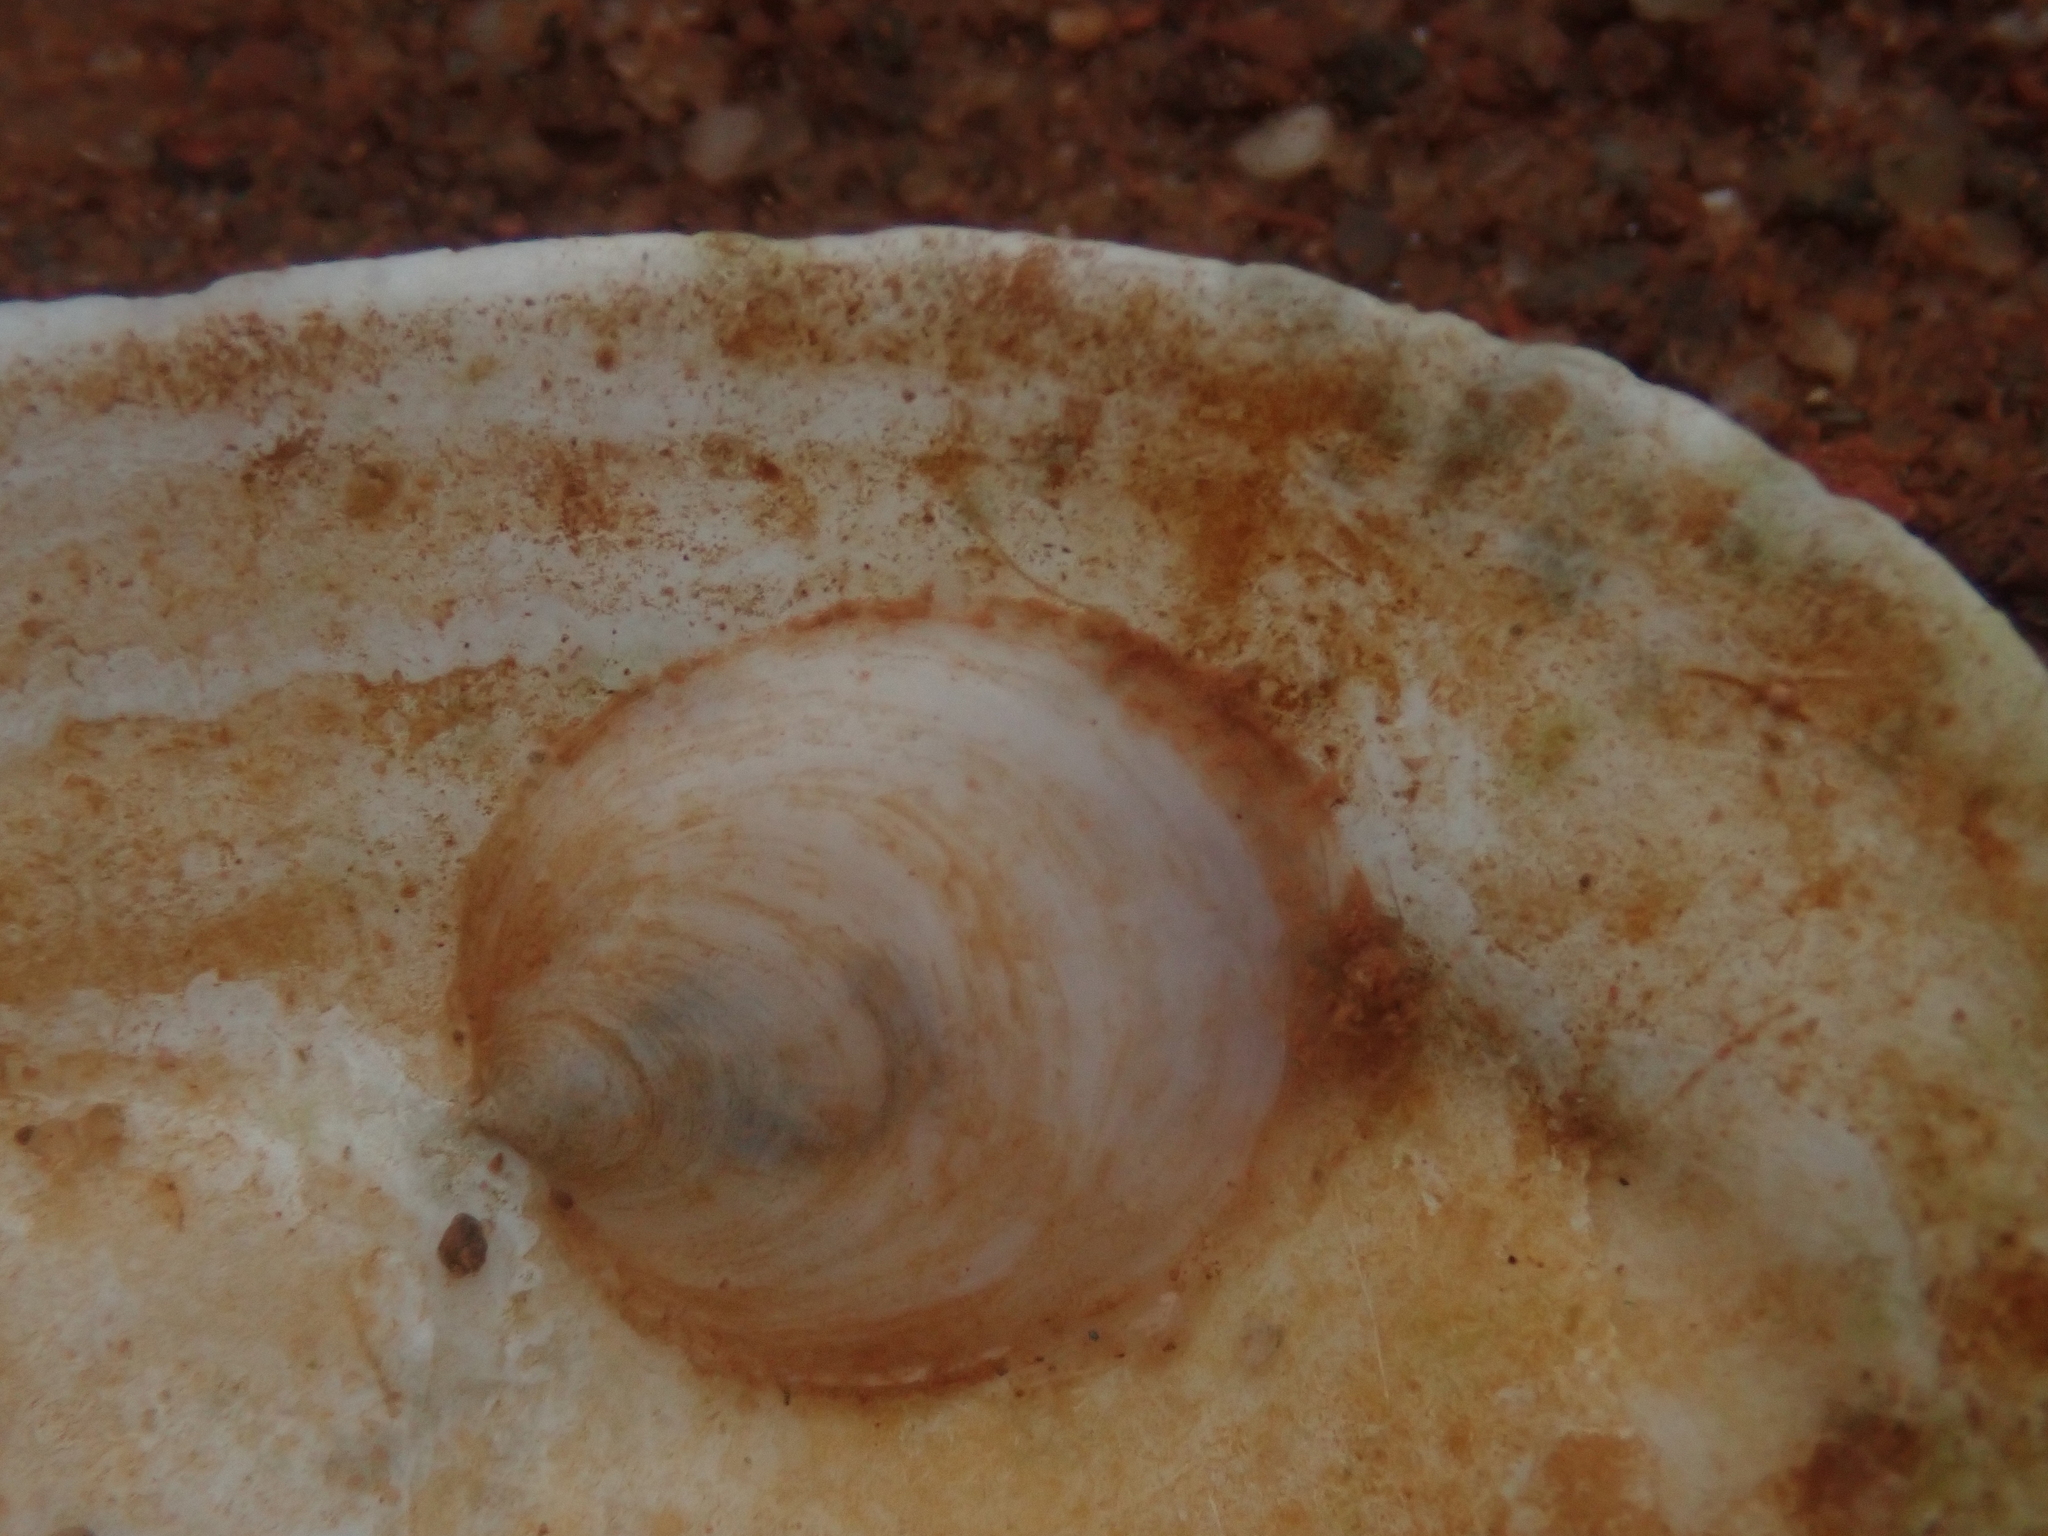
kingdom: Animalia
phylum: Mollusca
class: Gastropoda
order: Littorinimorpha
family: Calyptraeidae
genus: Crepidula
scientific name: Crepidula plana
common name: Eastern white slippersnail
